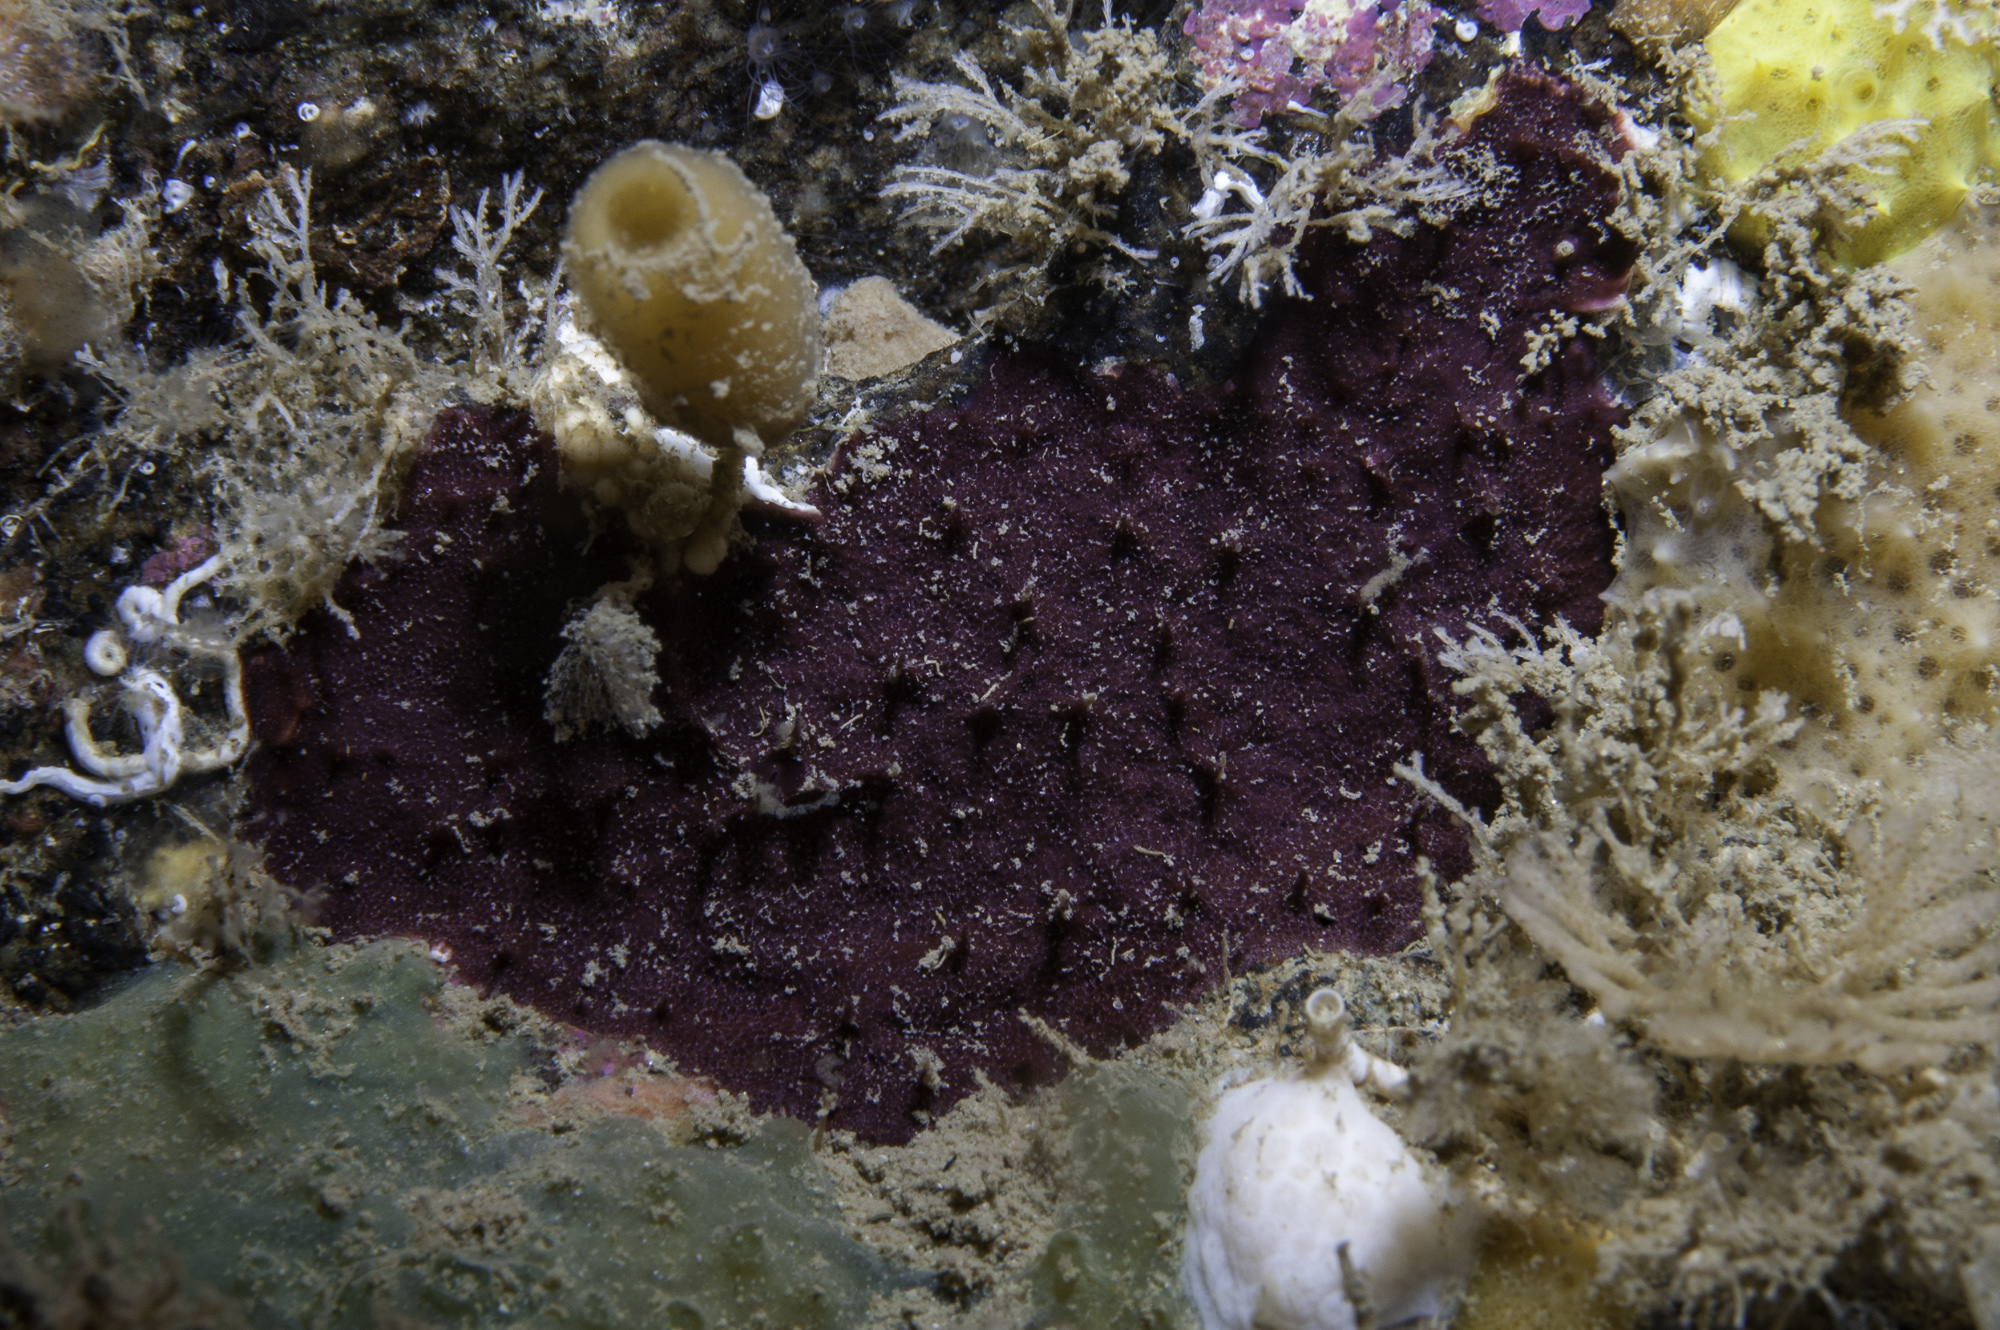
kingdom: Animalia
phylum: Porifera
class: Demospongiae
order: Dendroceratida
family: Darwinellidae
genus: Chelonaplysilla
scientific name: Chelonaplysilla noevus
